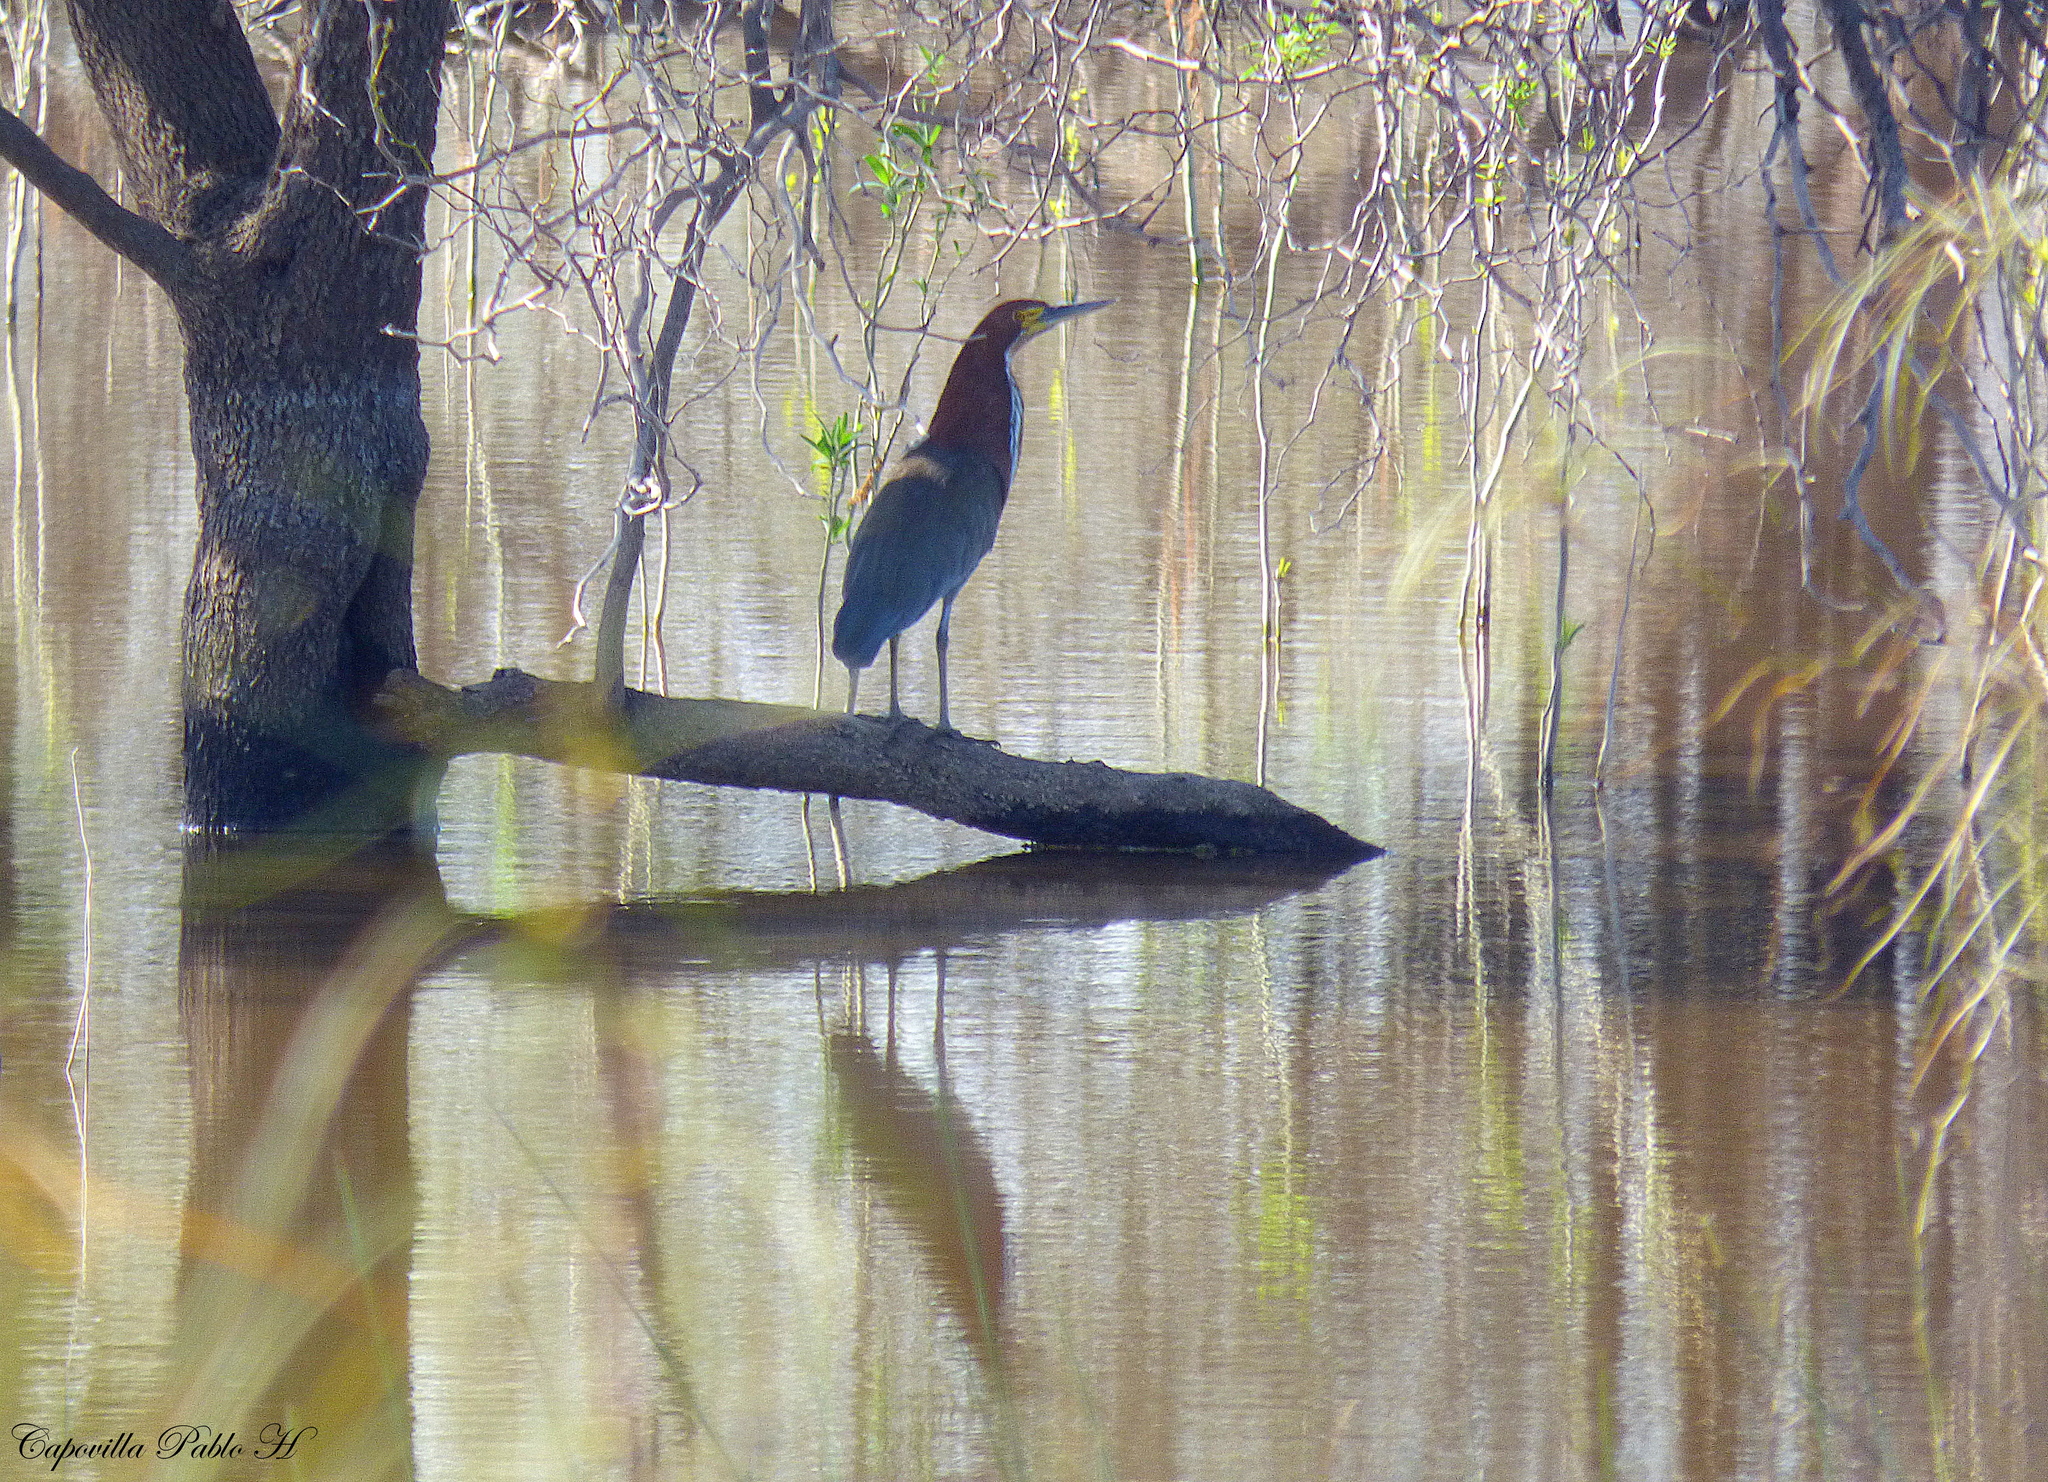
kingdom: Animalia
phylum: Chordata
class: Aves
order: Pelecaniformes
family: Ardeidae
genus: Tigrisoma
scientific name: Tigrisoma lineatum
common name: Rufescent tiger-heron
